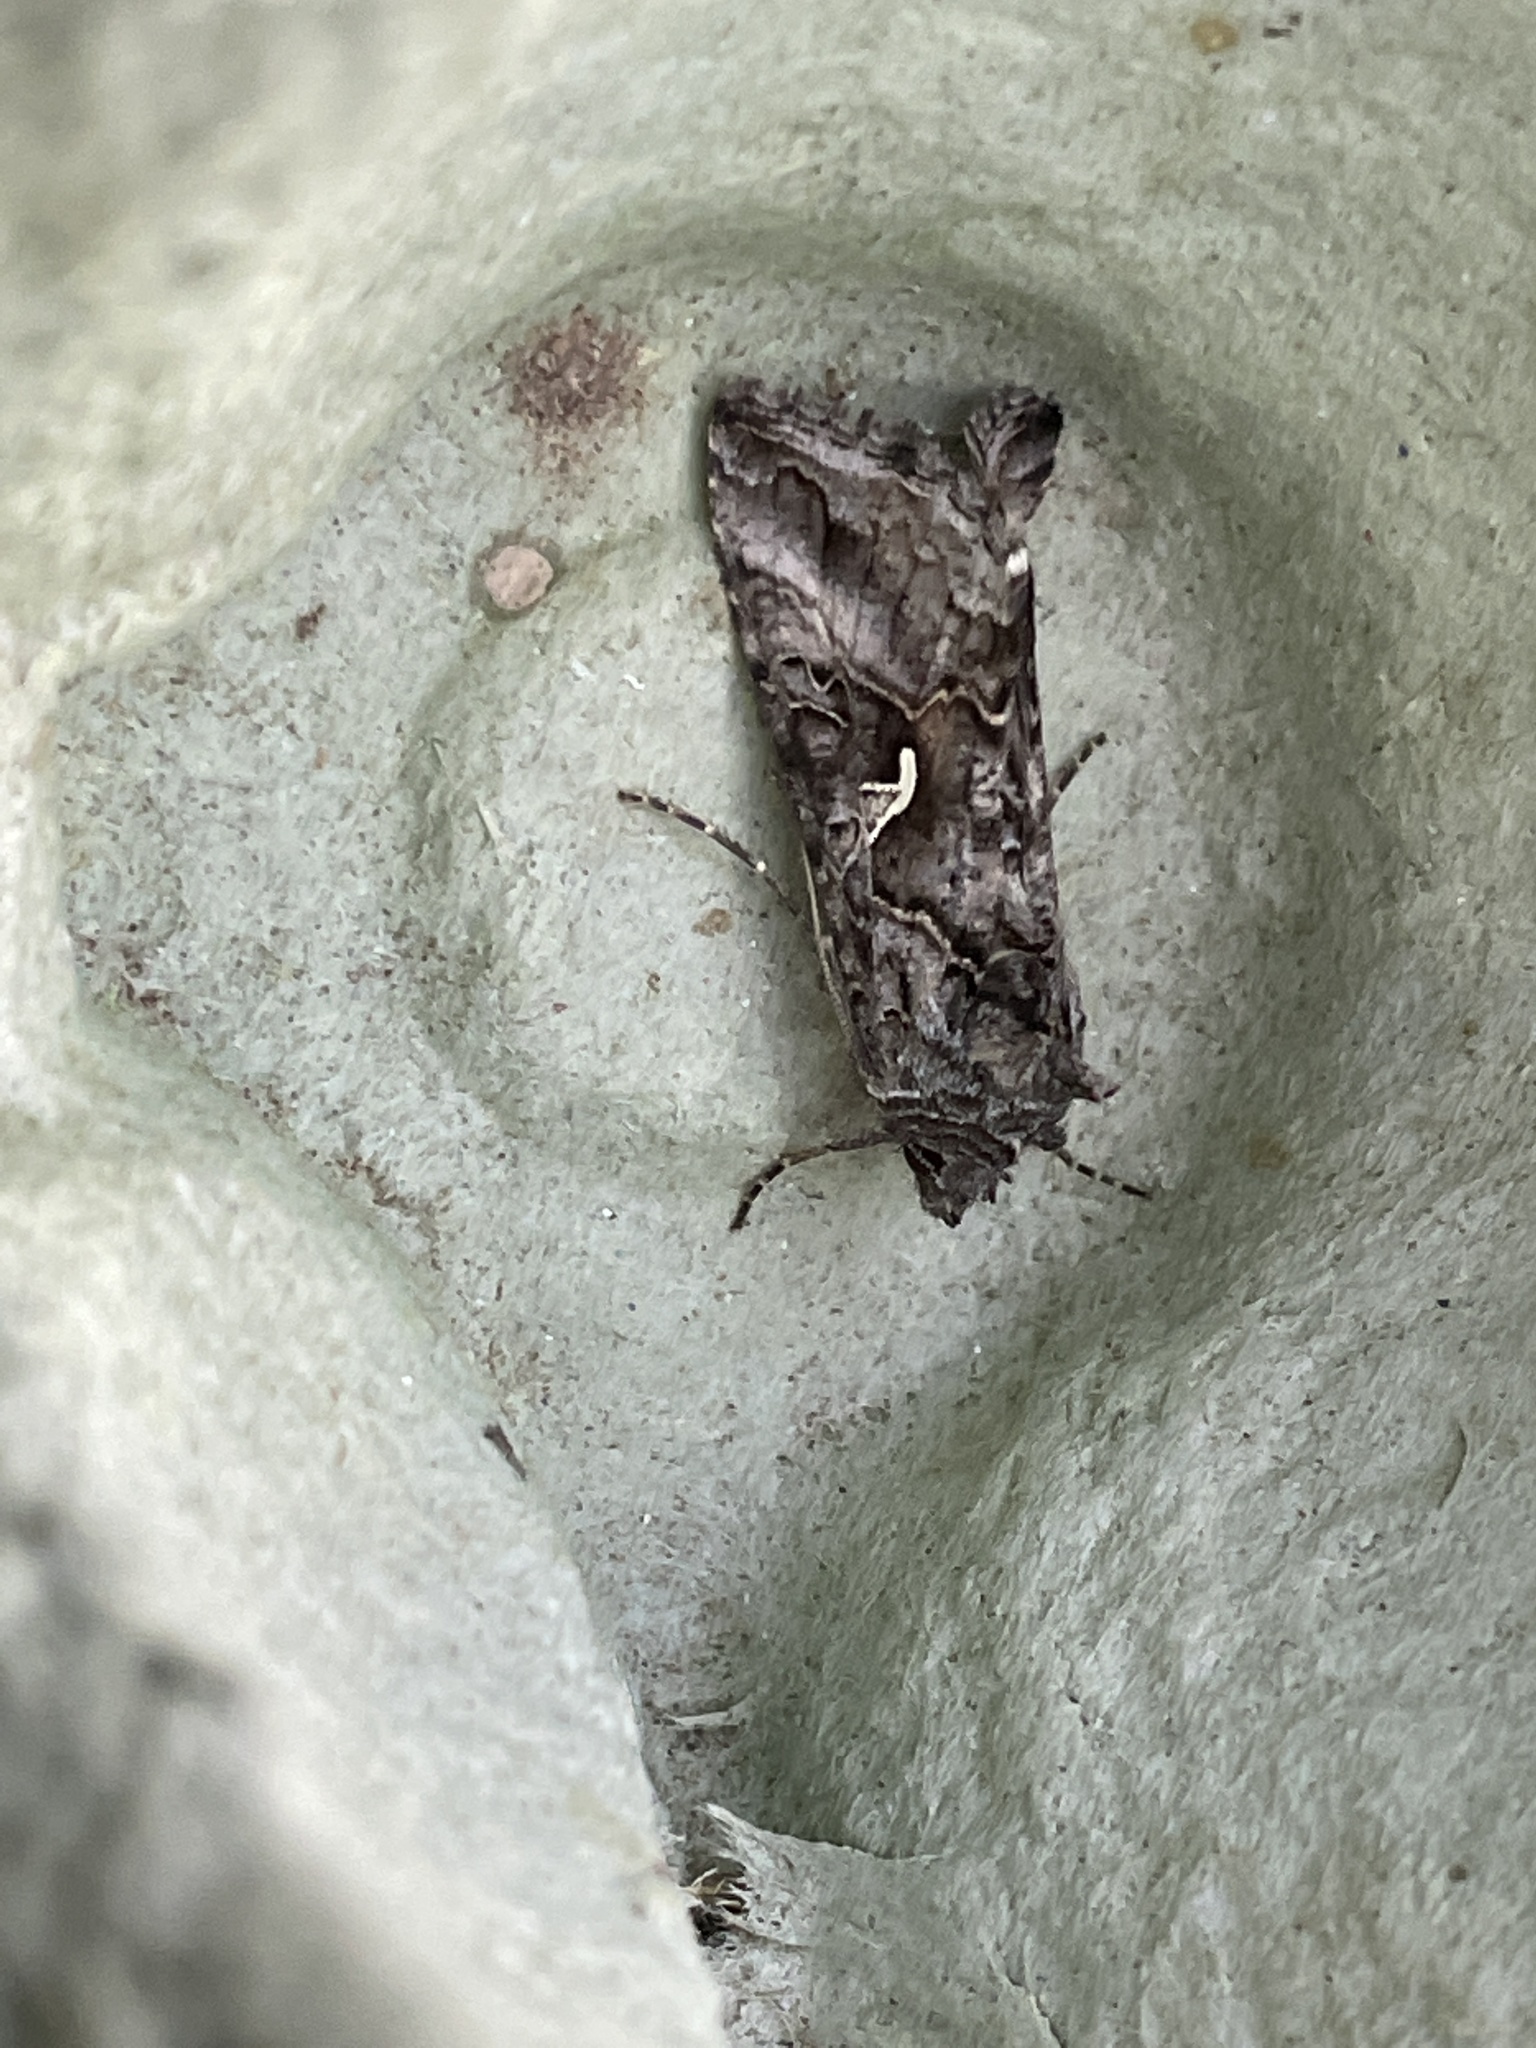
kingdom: Animalia
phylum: Arthropoda
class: Insecta
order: Lepidoptera
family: Noctuidae
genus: Autographa
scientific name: Autographa gamma
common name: Silver y
